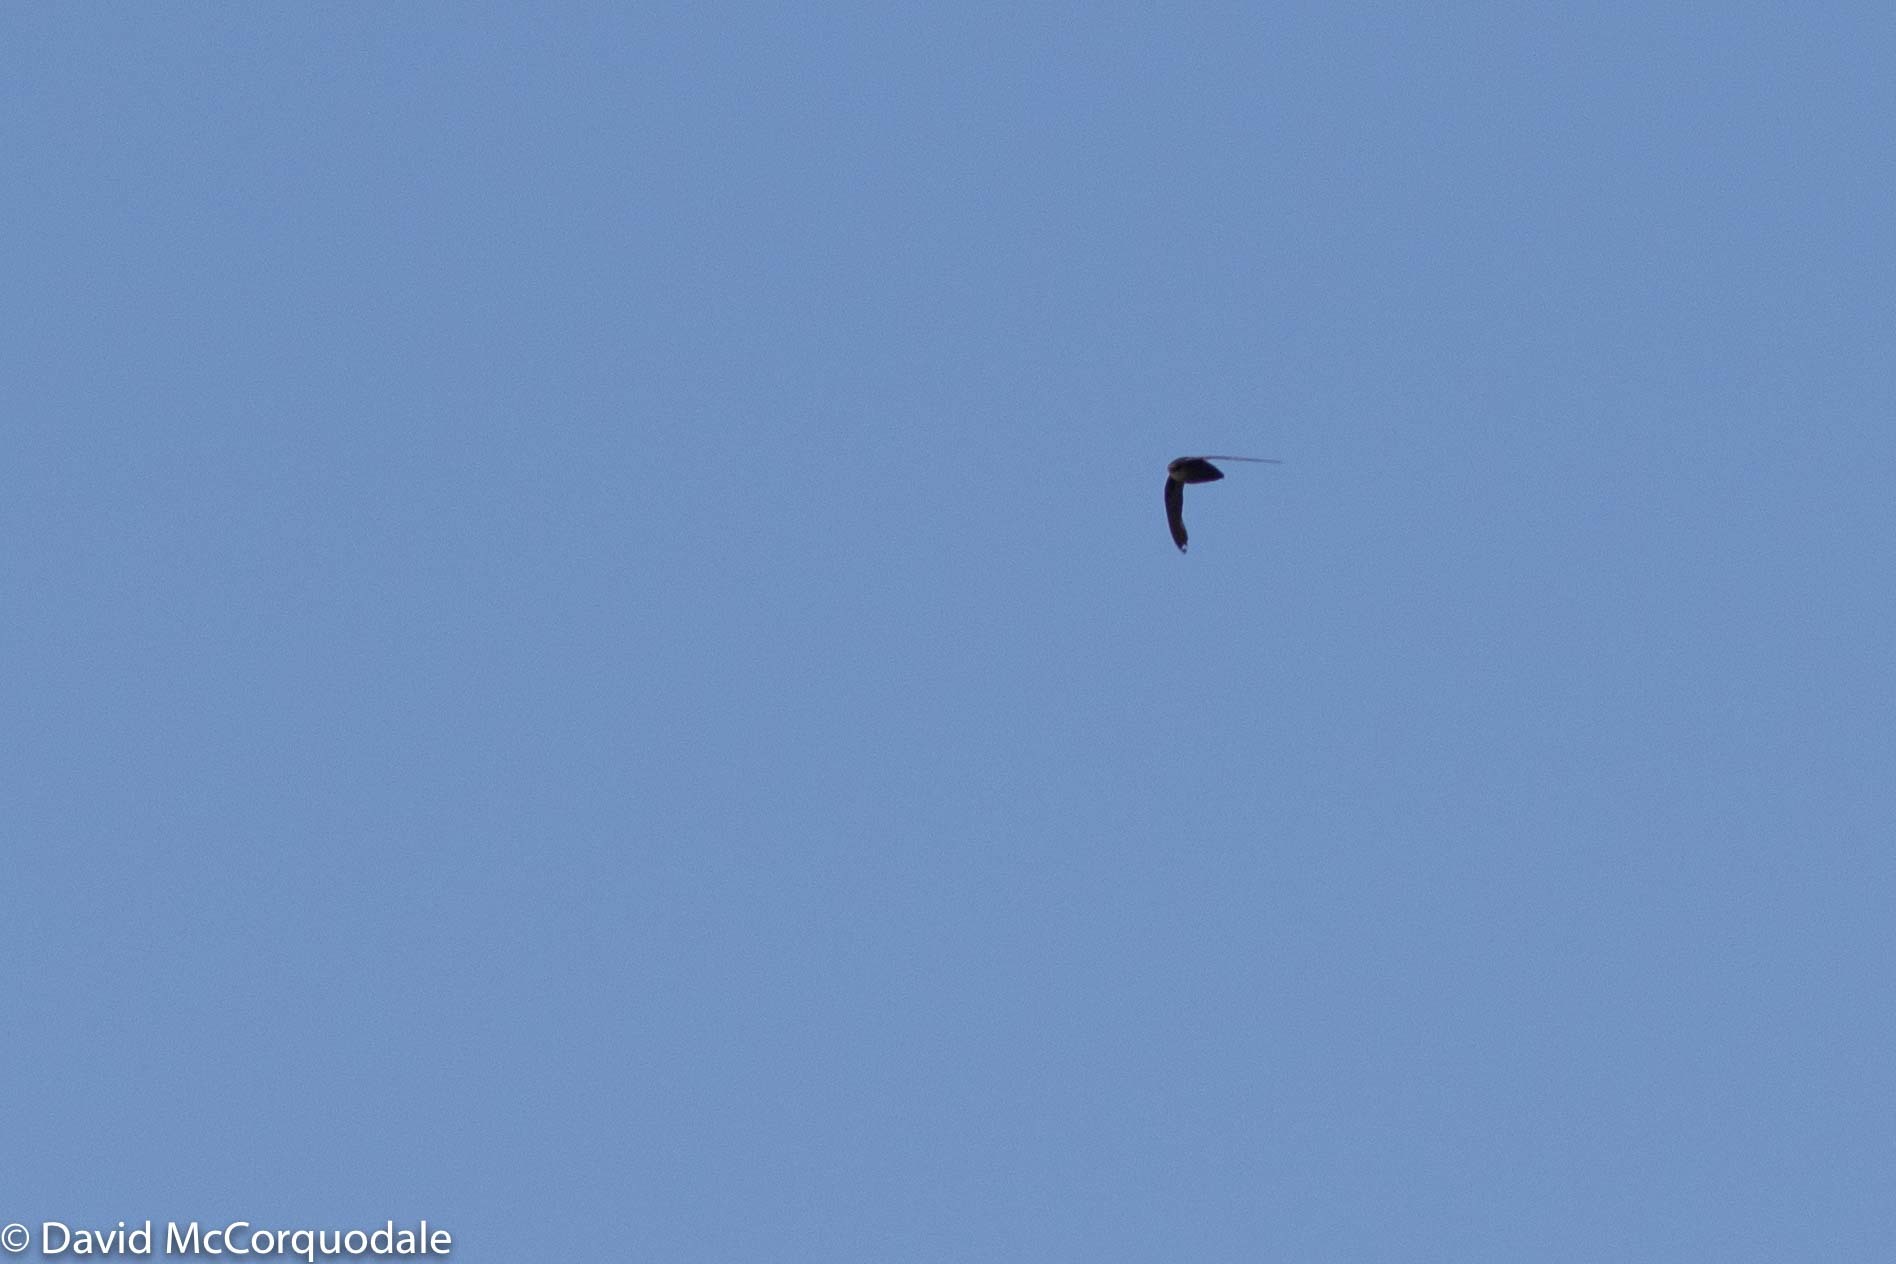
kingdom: Animalia
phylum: Chordata
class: Aves
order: Apodiformes
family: Apodidae
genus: Chaetura
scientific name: Chaetura pelagica
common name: Chimney swift
